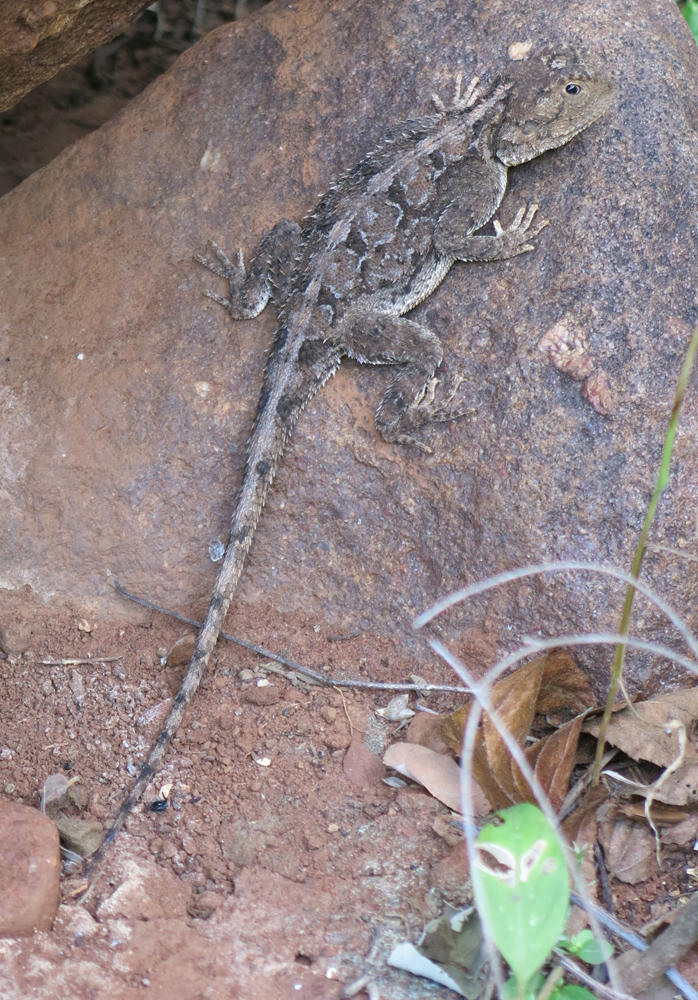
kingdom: Animalia
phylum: Chordata
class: Squamata
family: Agamidae
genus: Agama
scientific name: Agama armata
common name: Northern ground agama
